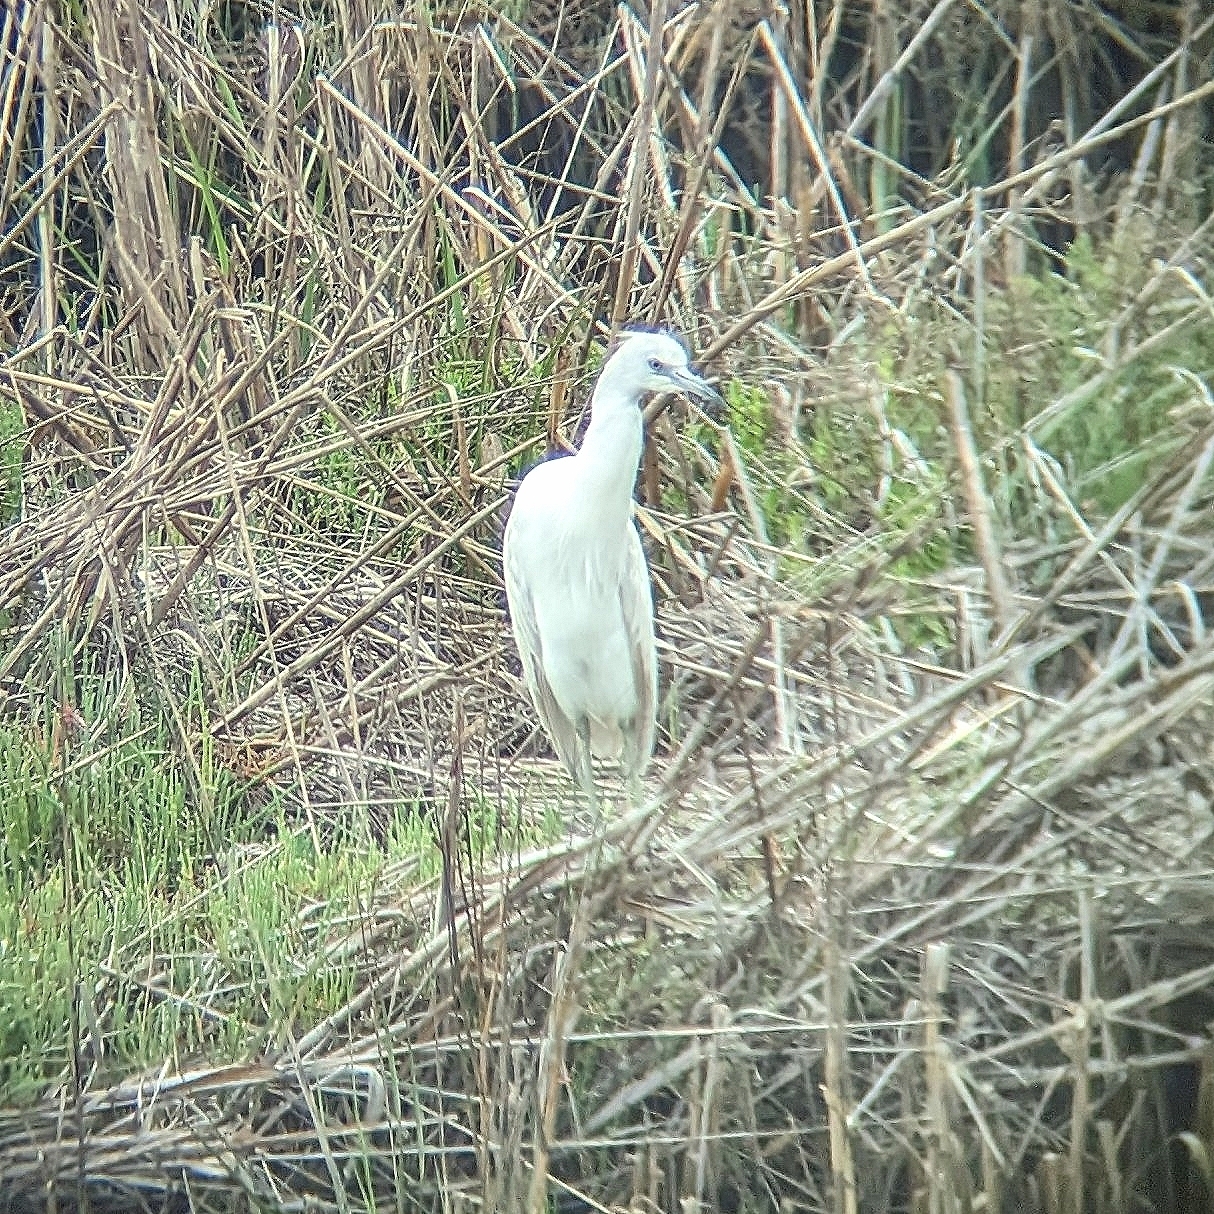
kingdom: Animalia
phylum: Chordata
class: Aves
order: Pelecaniformes
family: Ardeidae
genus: Egretta
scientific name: Egretta caerulea
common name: Little blue heron
